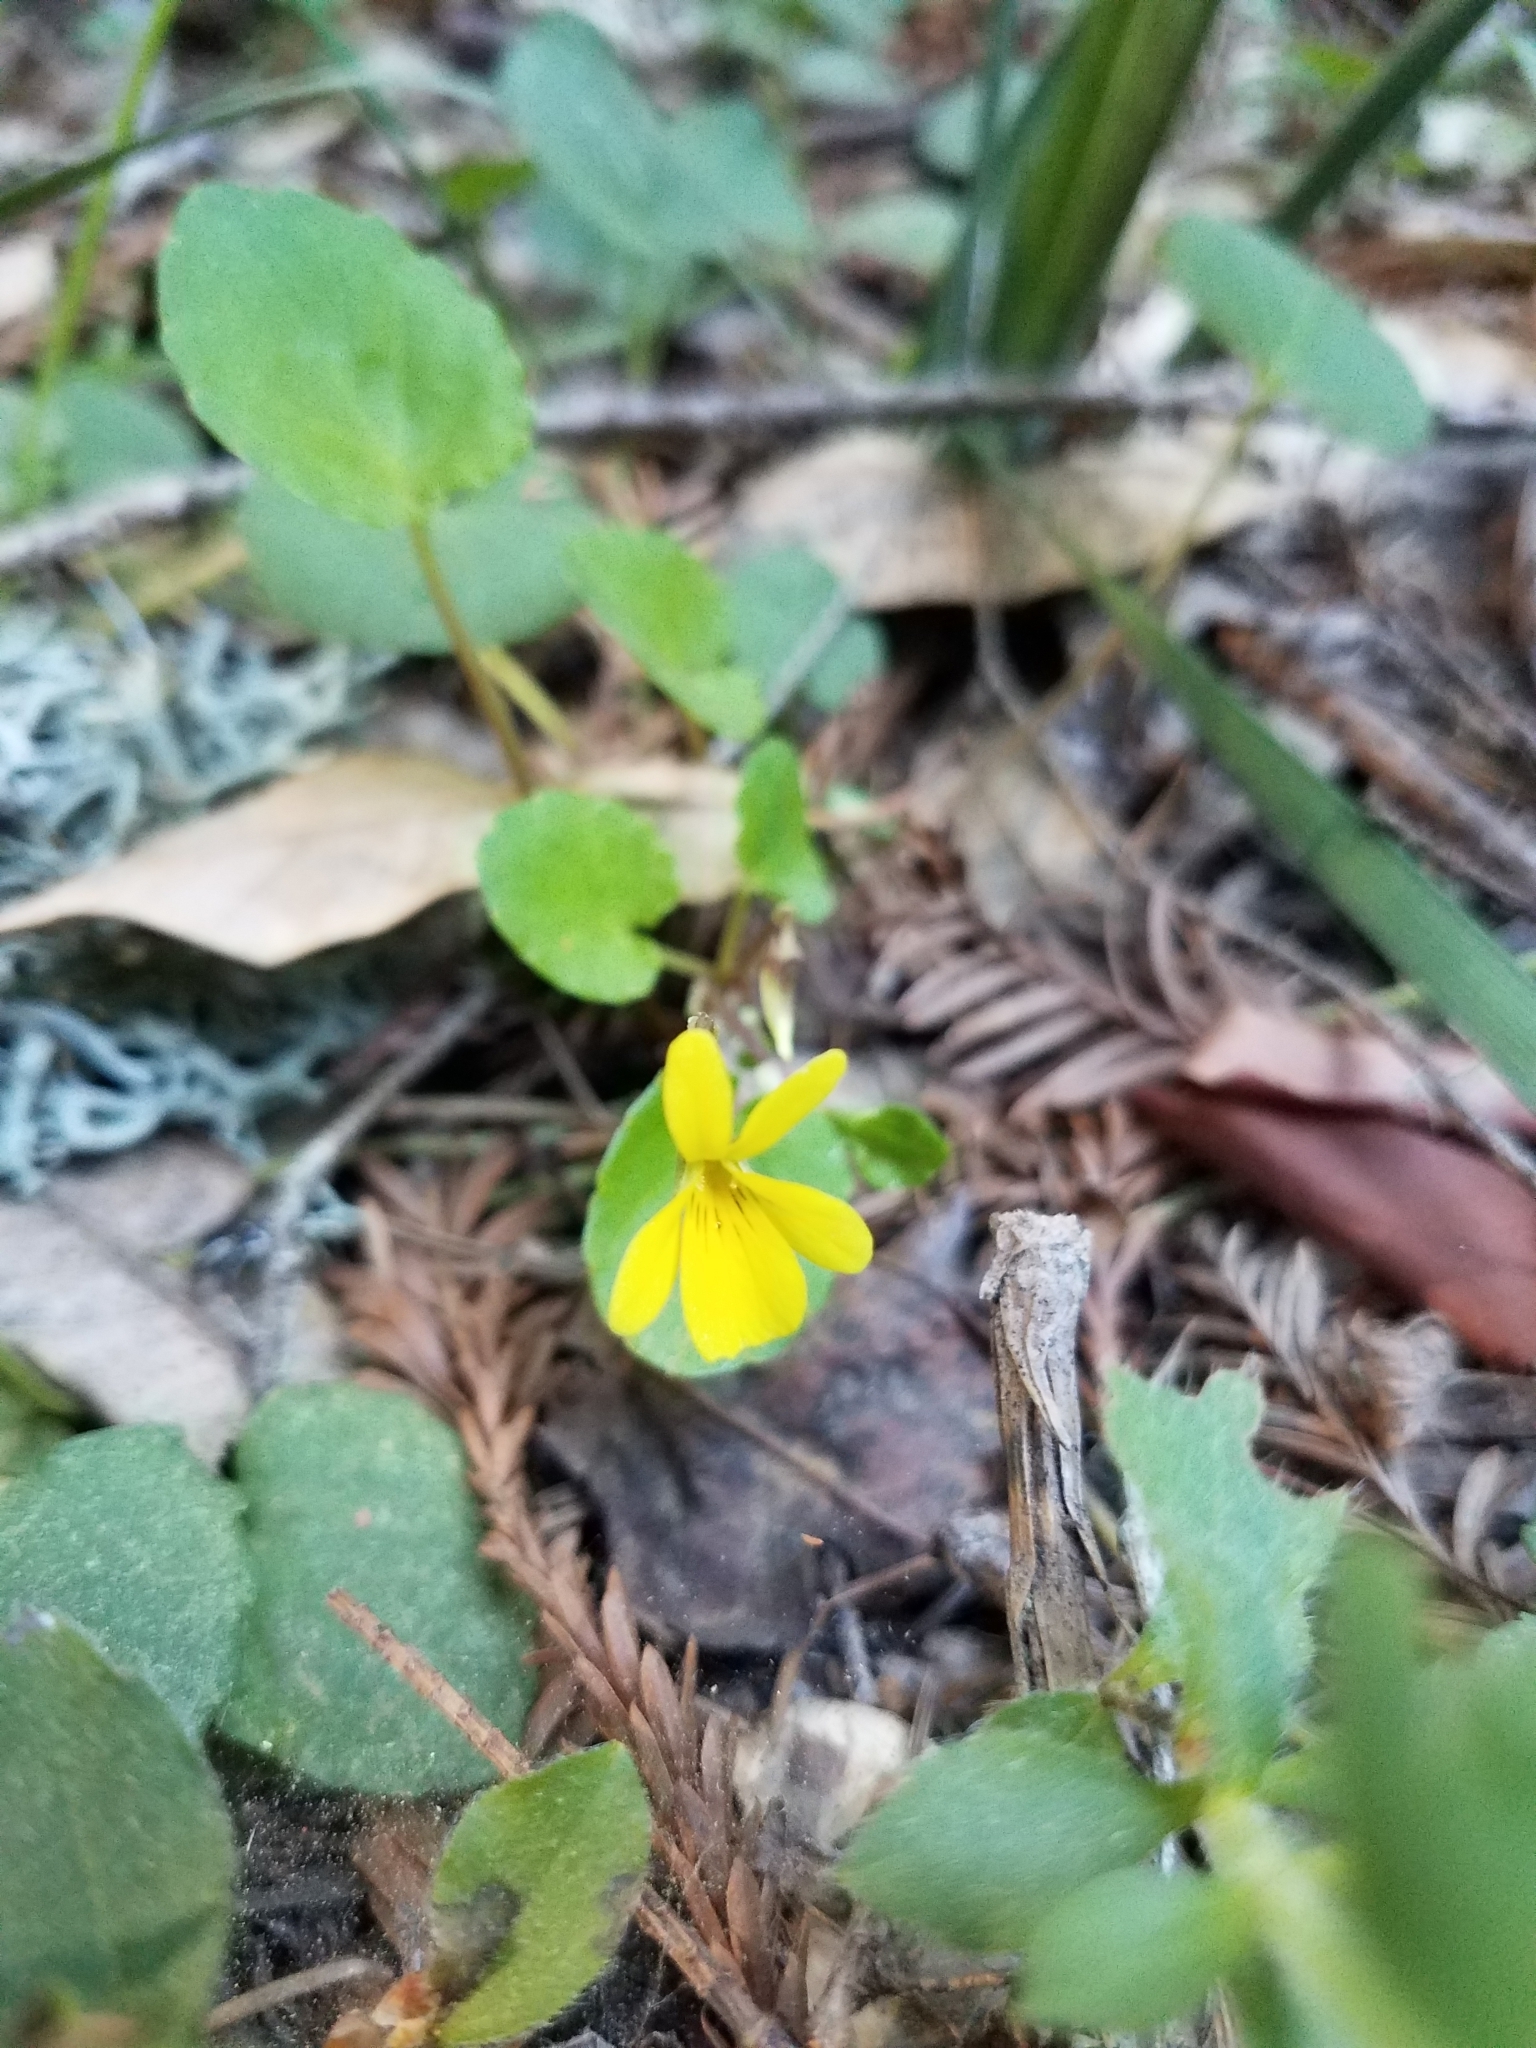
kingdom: Plantae
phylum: Tracheophyta
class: Magnoliopsida
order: Malpighiales
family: Violaceae
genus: Viola
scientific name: Viola sempervirens
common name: Evergreen violet
